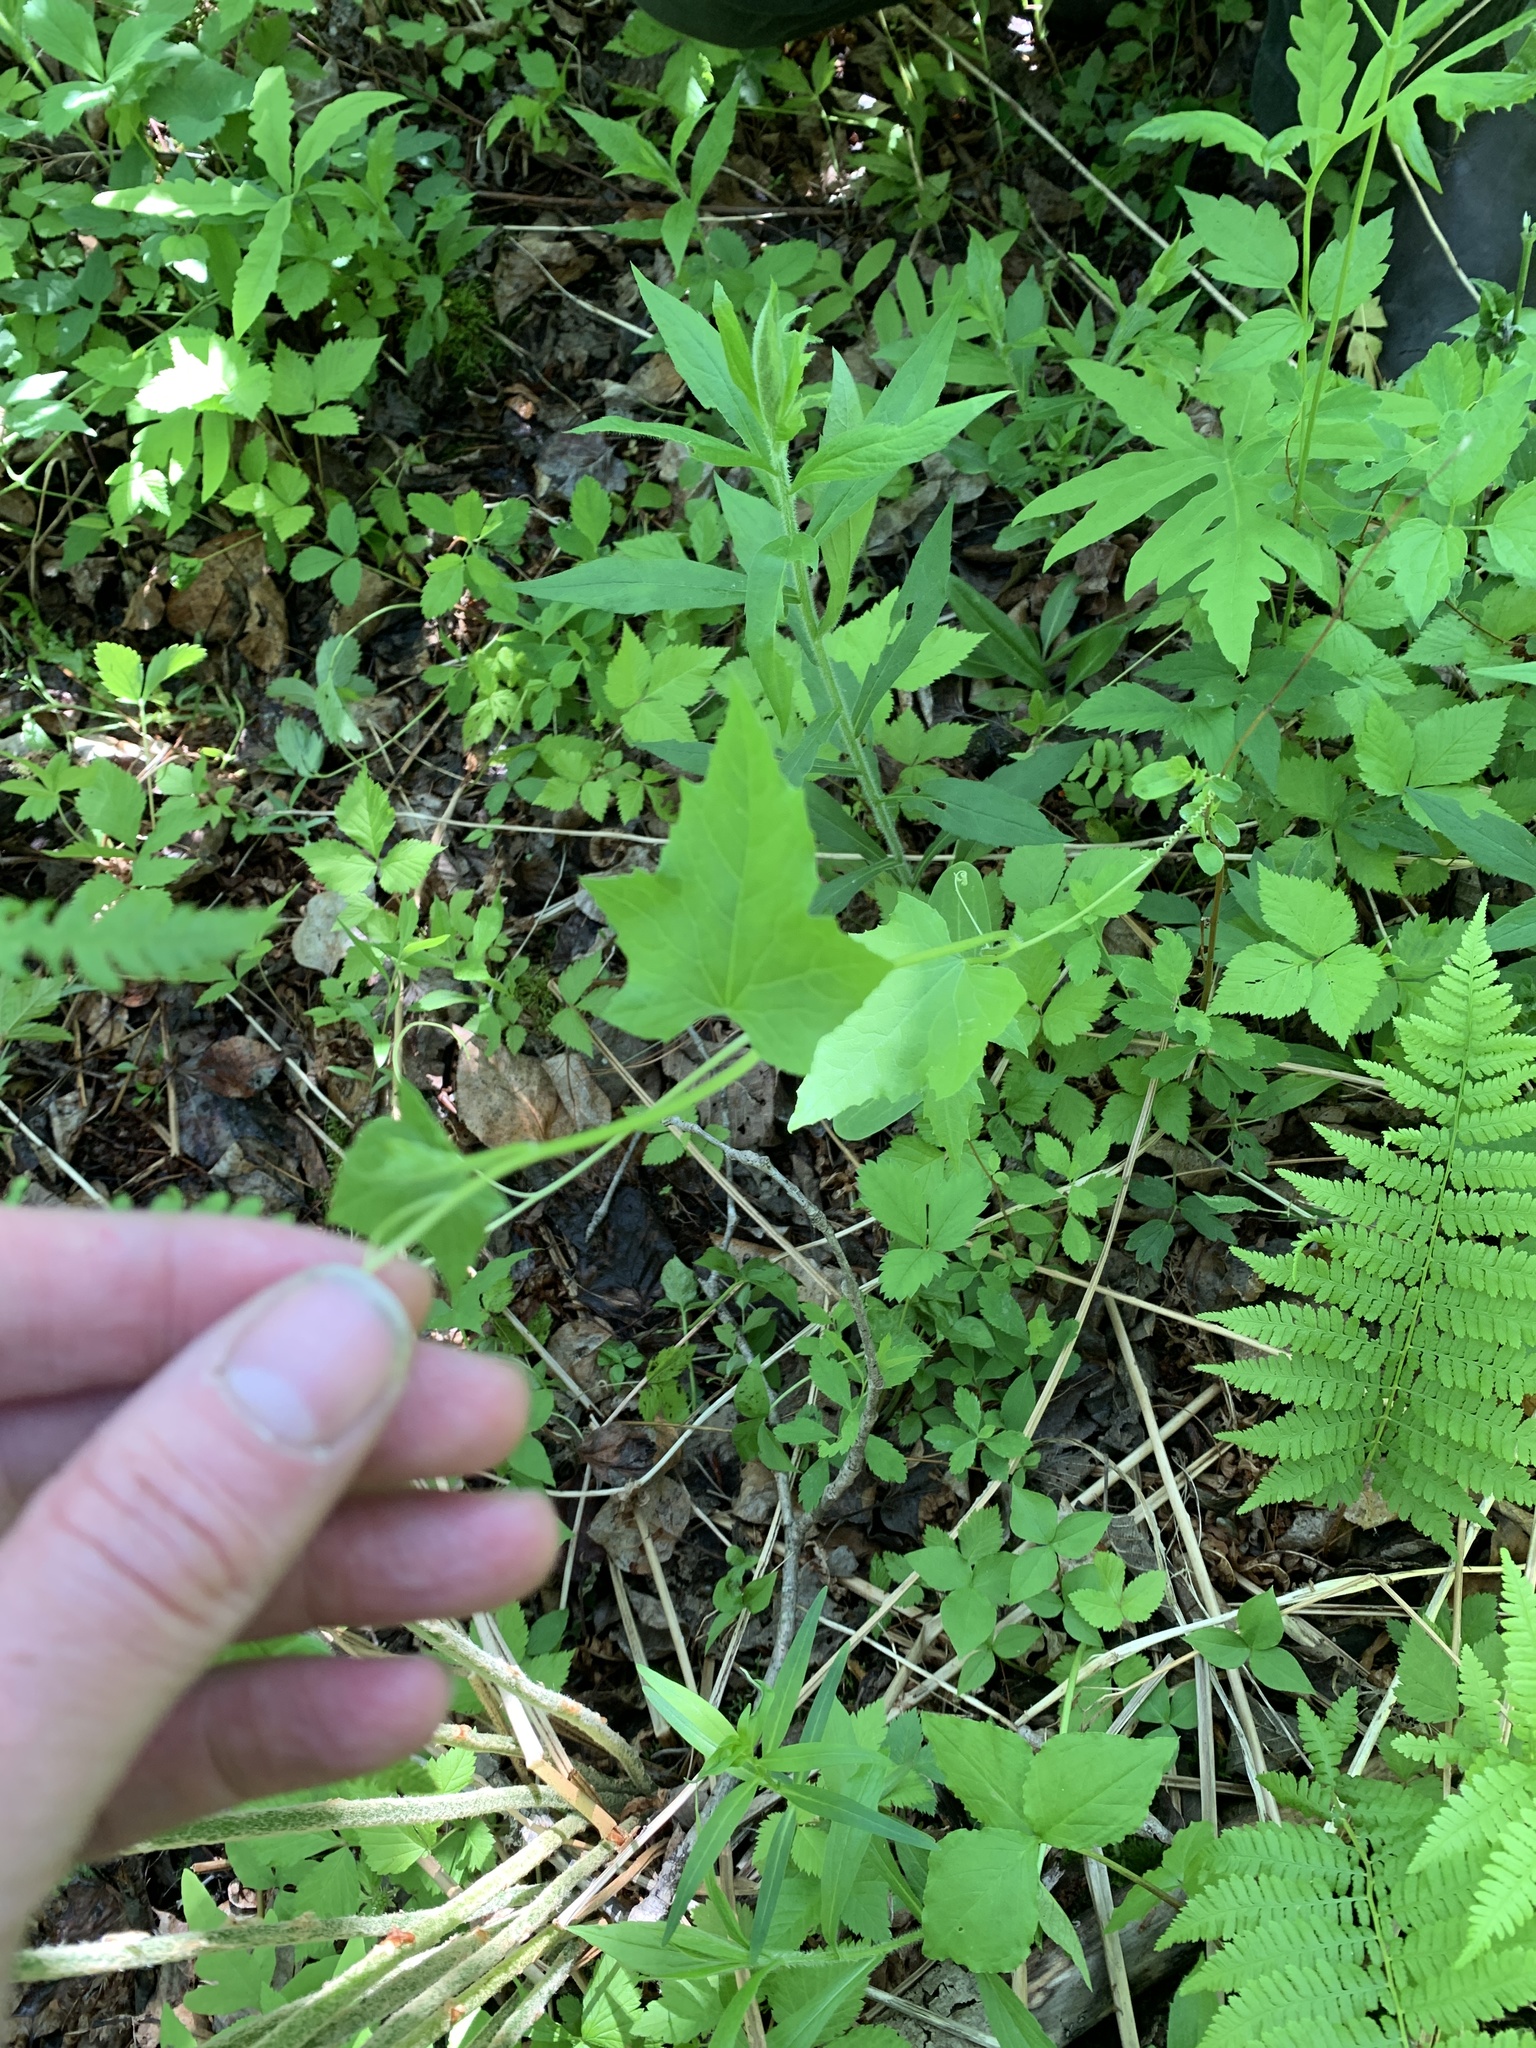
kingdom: Plantae
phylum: Tracheophyta
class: Magnoliopsida
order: Cucurbitales
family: Cucurbitaceae
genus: Echinocystis
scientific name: Echinocystis lobata
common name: Wild cucumber
